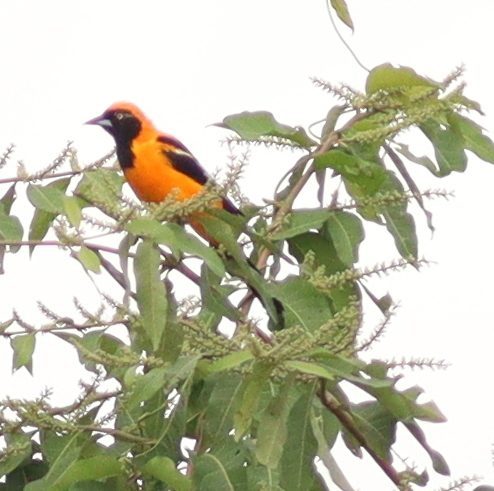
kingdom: Animalia
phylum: Chordata
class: Aves
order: Passeriformes
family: Icteridae
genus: Icterus
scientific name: Icterus icterus
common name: Venezuelan troupial
